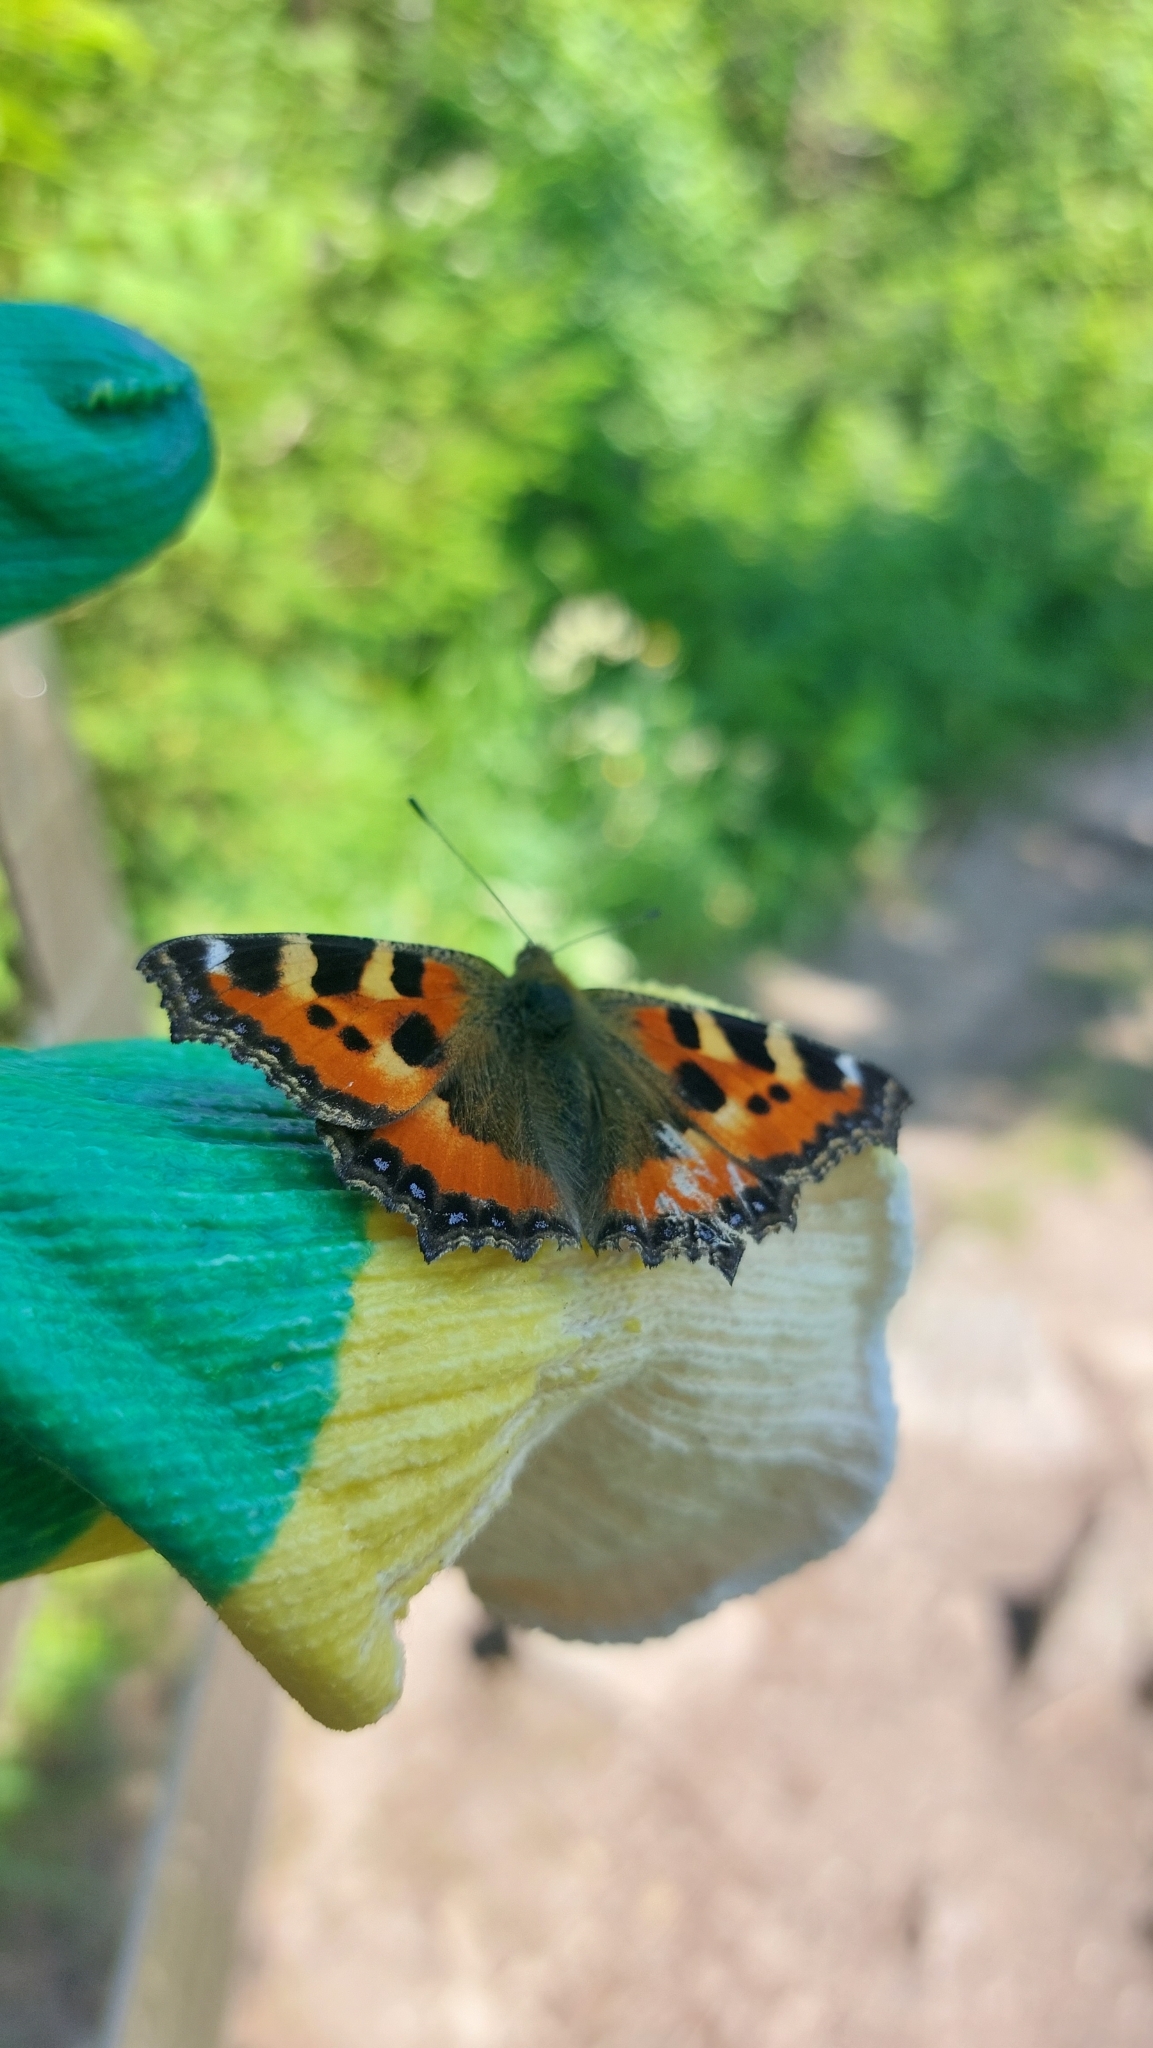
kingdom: Animalia
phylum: Arthropoda
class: Insecta
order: Lepidoptera
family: Nymphalidae
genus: Aglais
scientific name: Aglais urticae
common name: Small tortoiseshell
